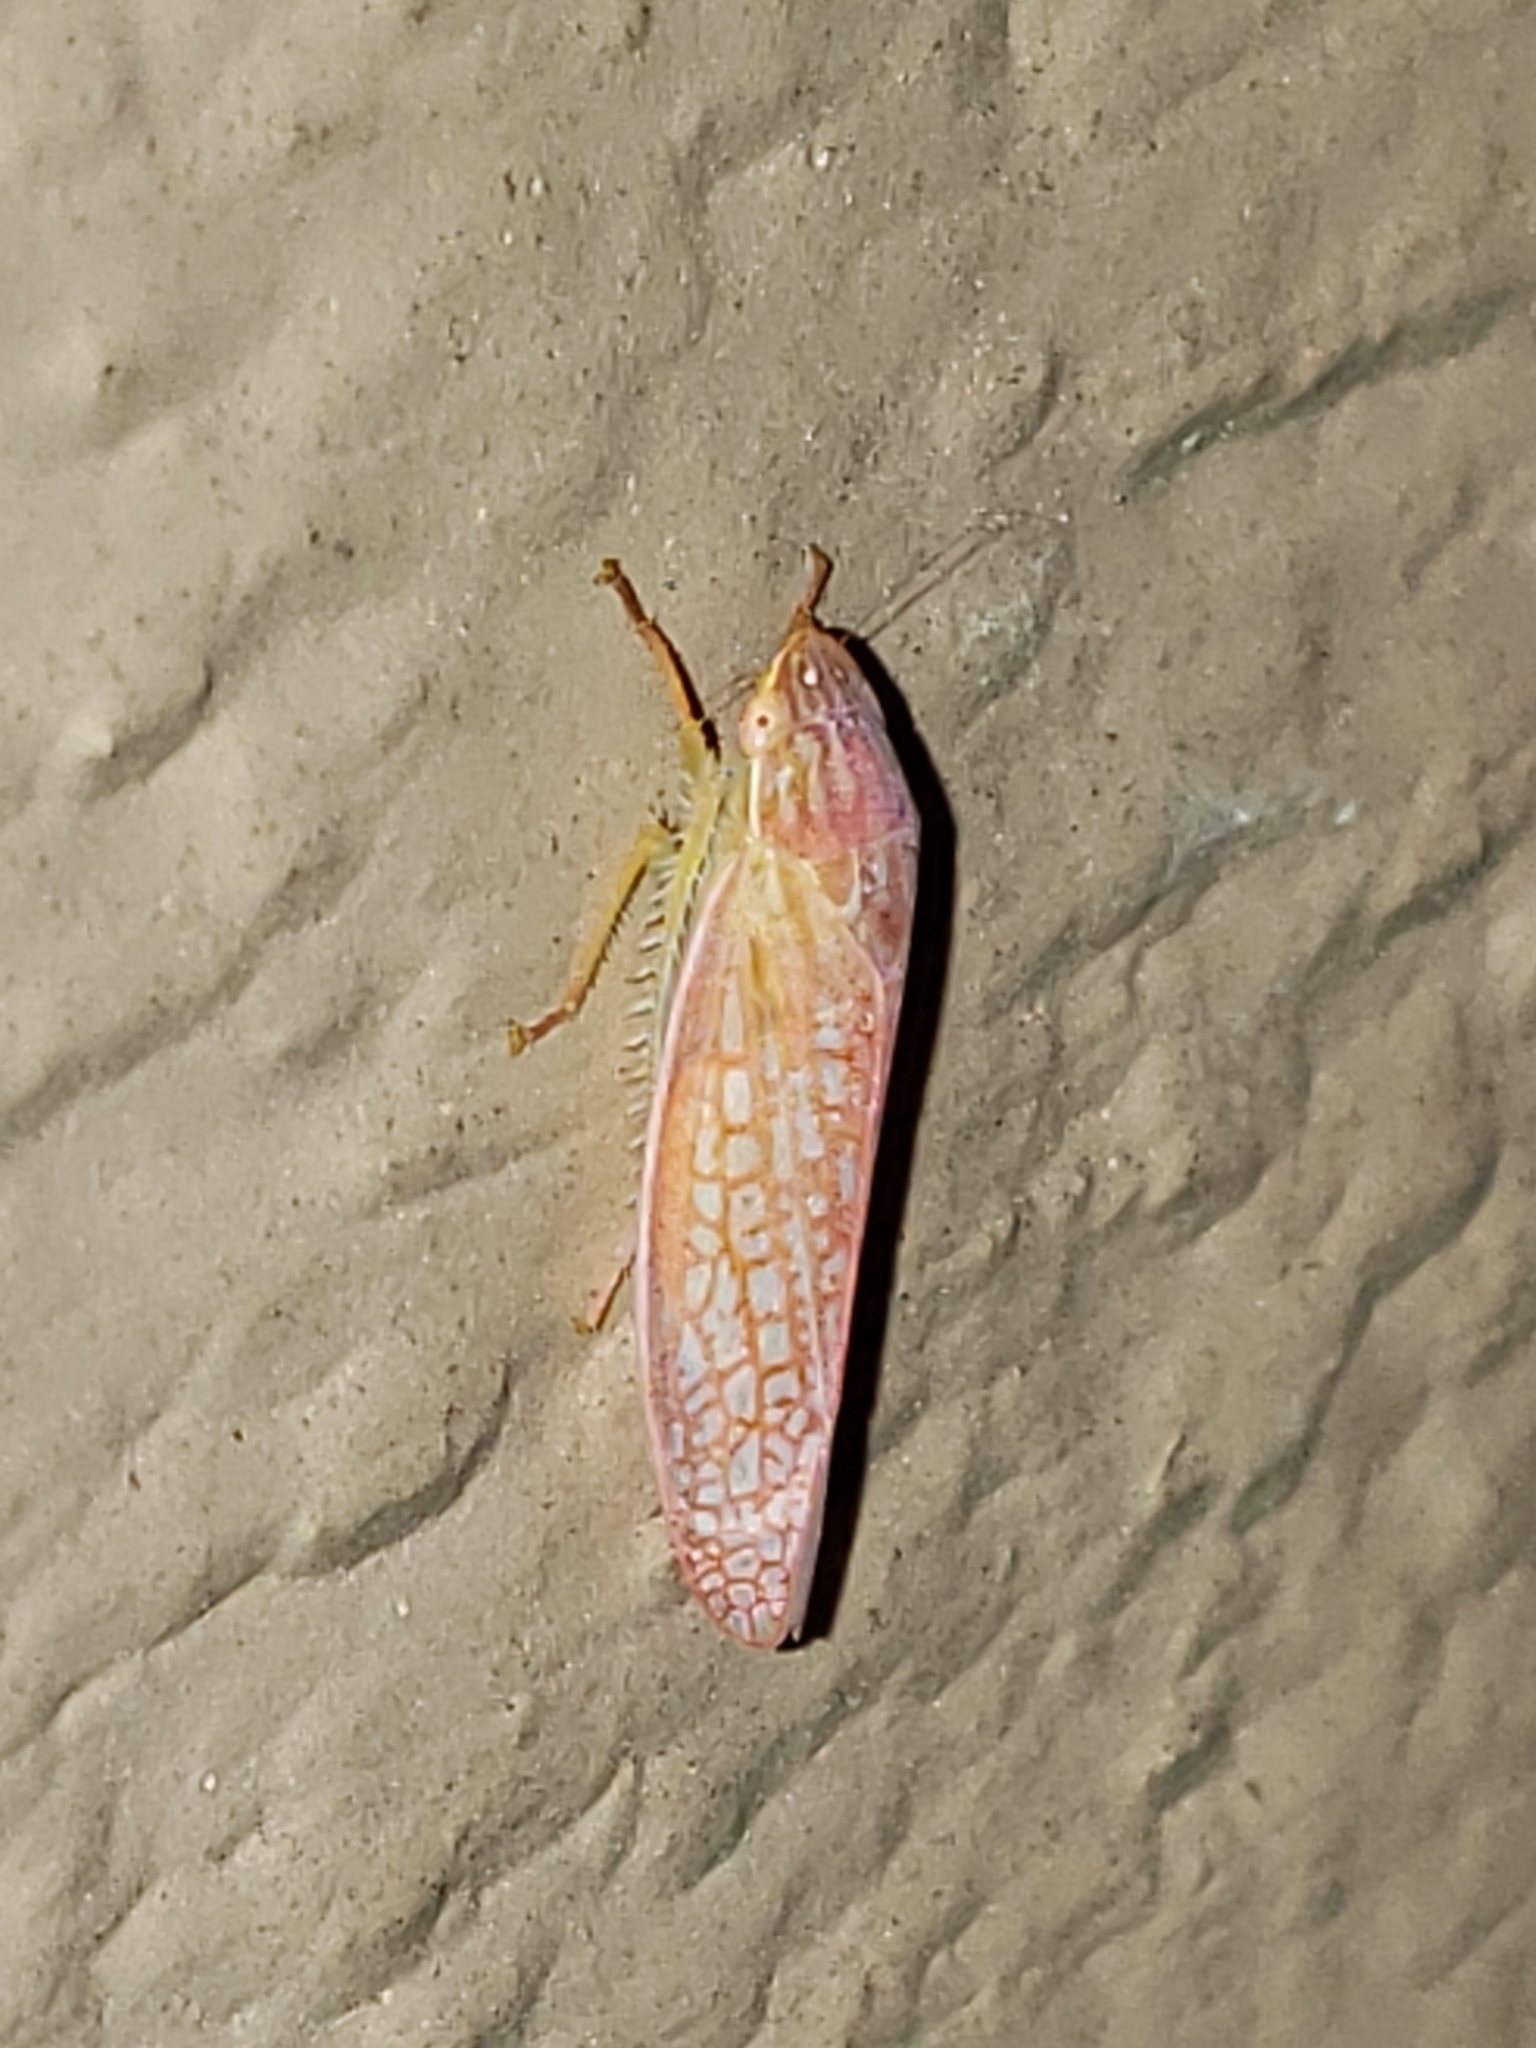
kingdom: Animalia
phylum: Arthropoda
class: Insecta
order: Hemiptera
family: Cicadellidae
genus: Gyponana
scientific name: Gyponana gladia
